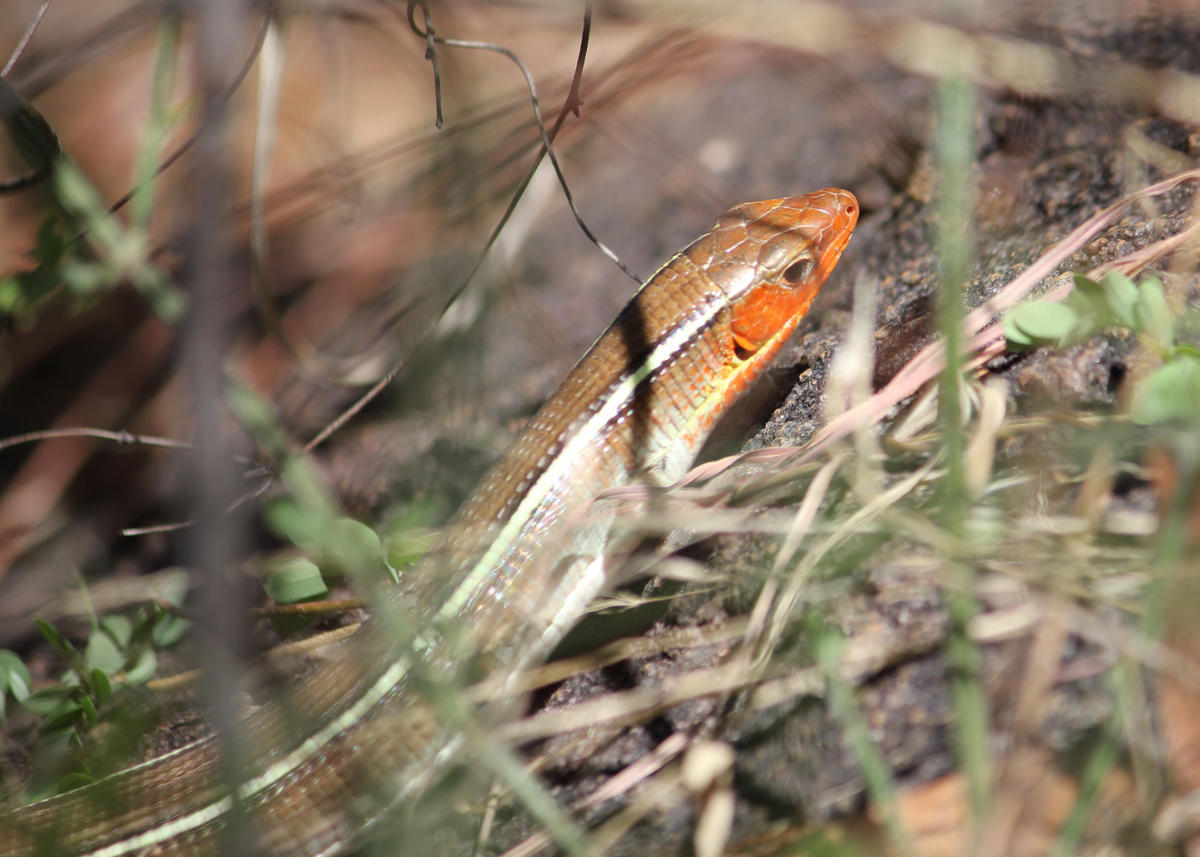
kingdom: Animalia
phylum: Chordata
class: Squamata
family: Gerrhosauridae
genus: Gerrhosaurus
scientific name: Gerrhosaurus flavigularis
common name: Yellow-throated plated lizard
